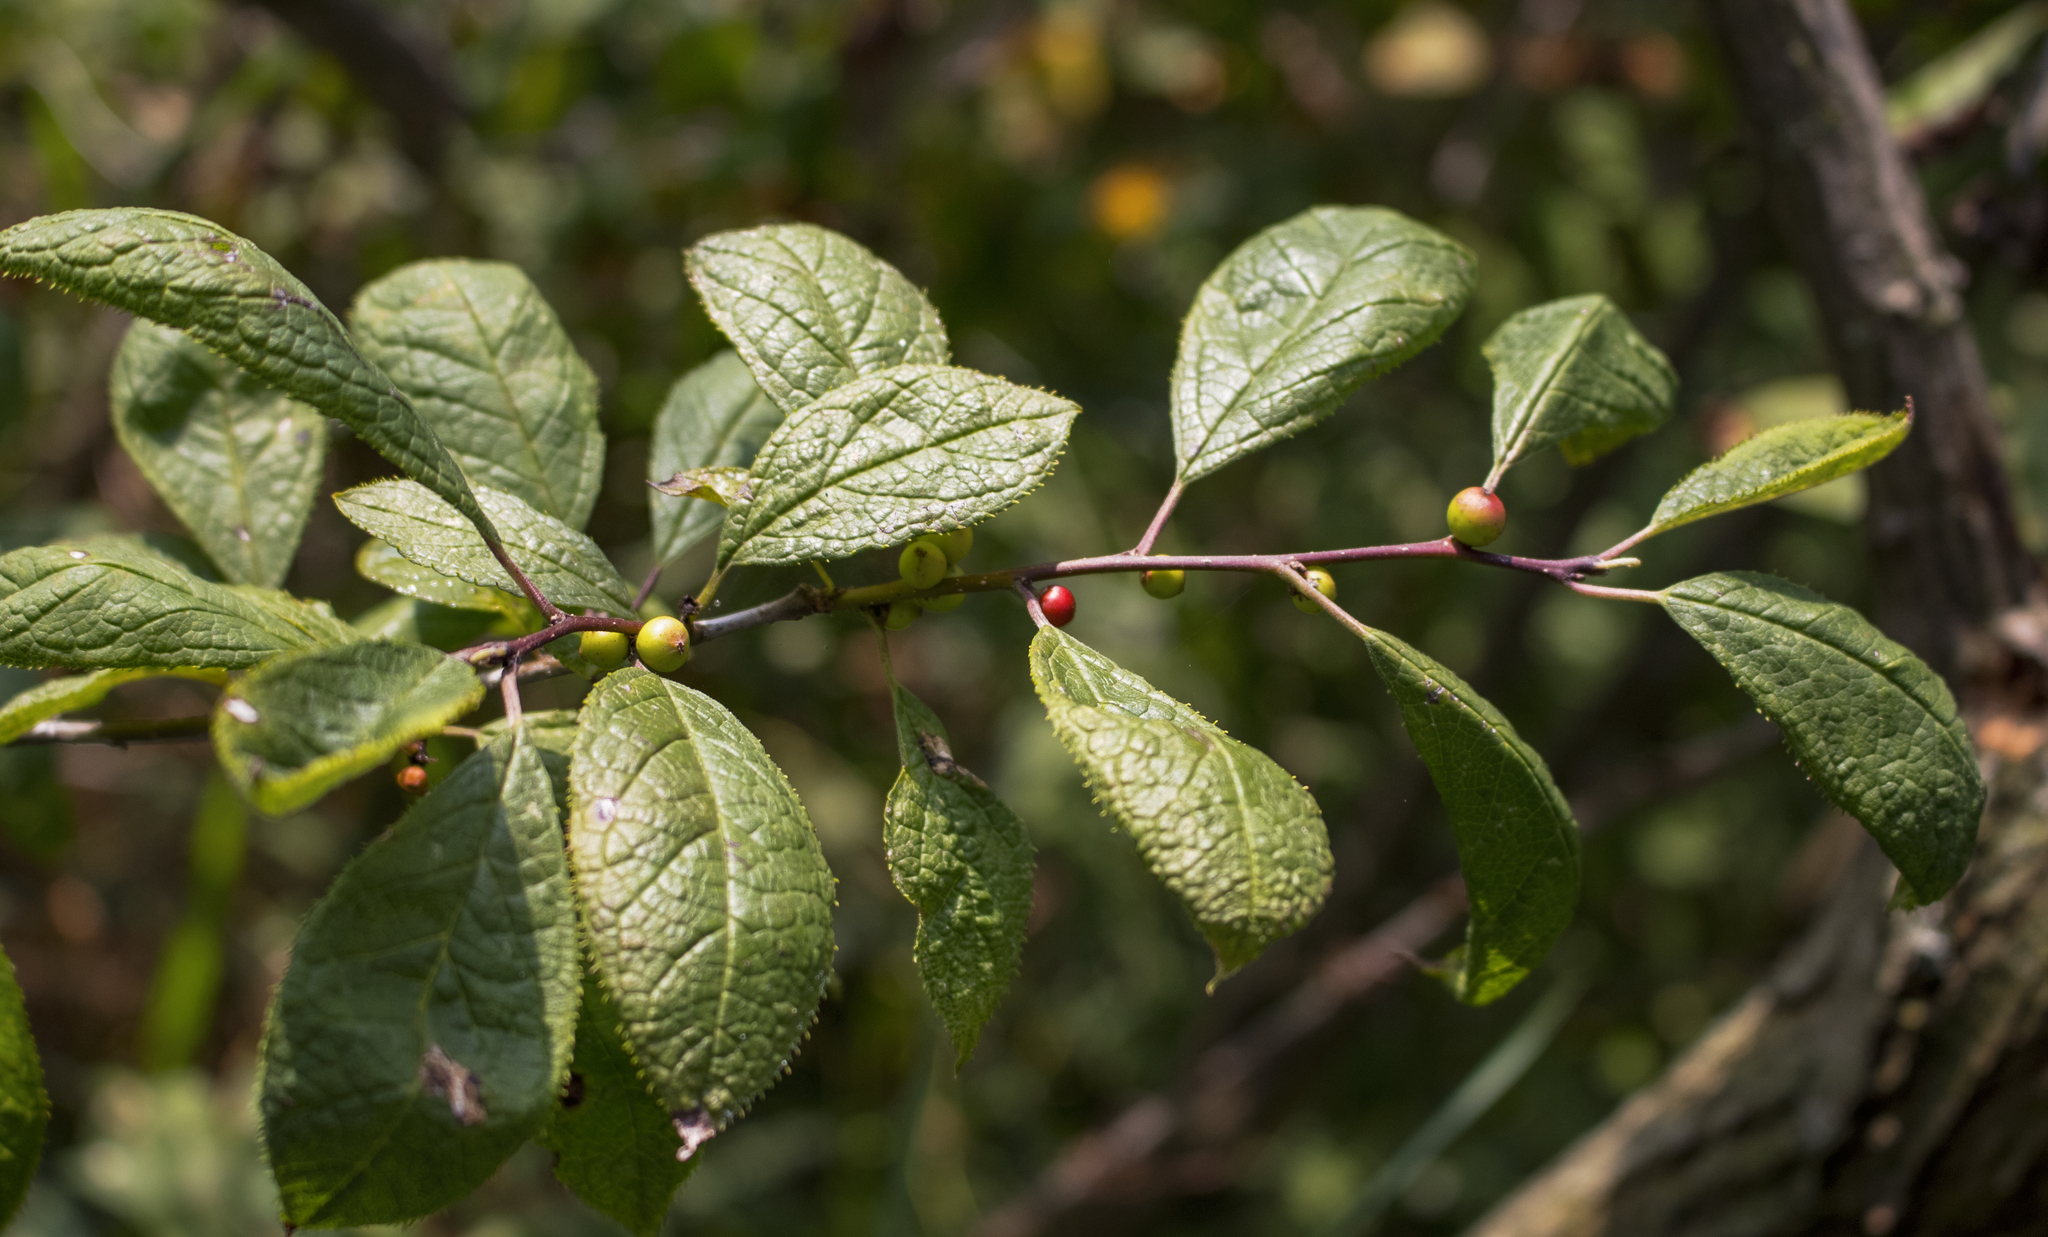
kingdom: Plantae
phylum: Tracheophyta
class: Magnoliopsida
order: Aquifoliales
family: Aquifoliaceae
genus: Ilex
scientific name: Ilex verticillata
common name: Virginia winterberry
